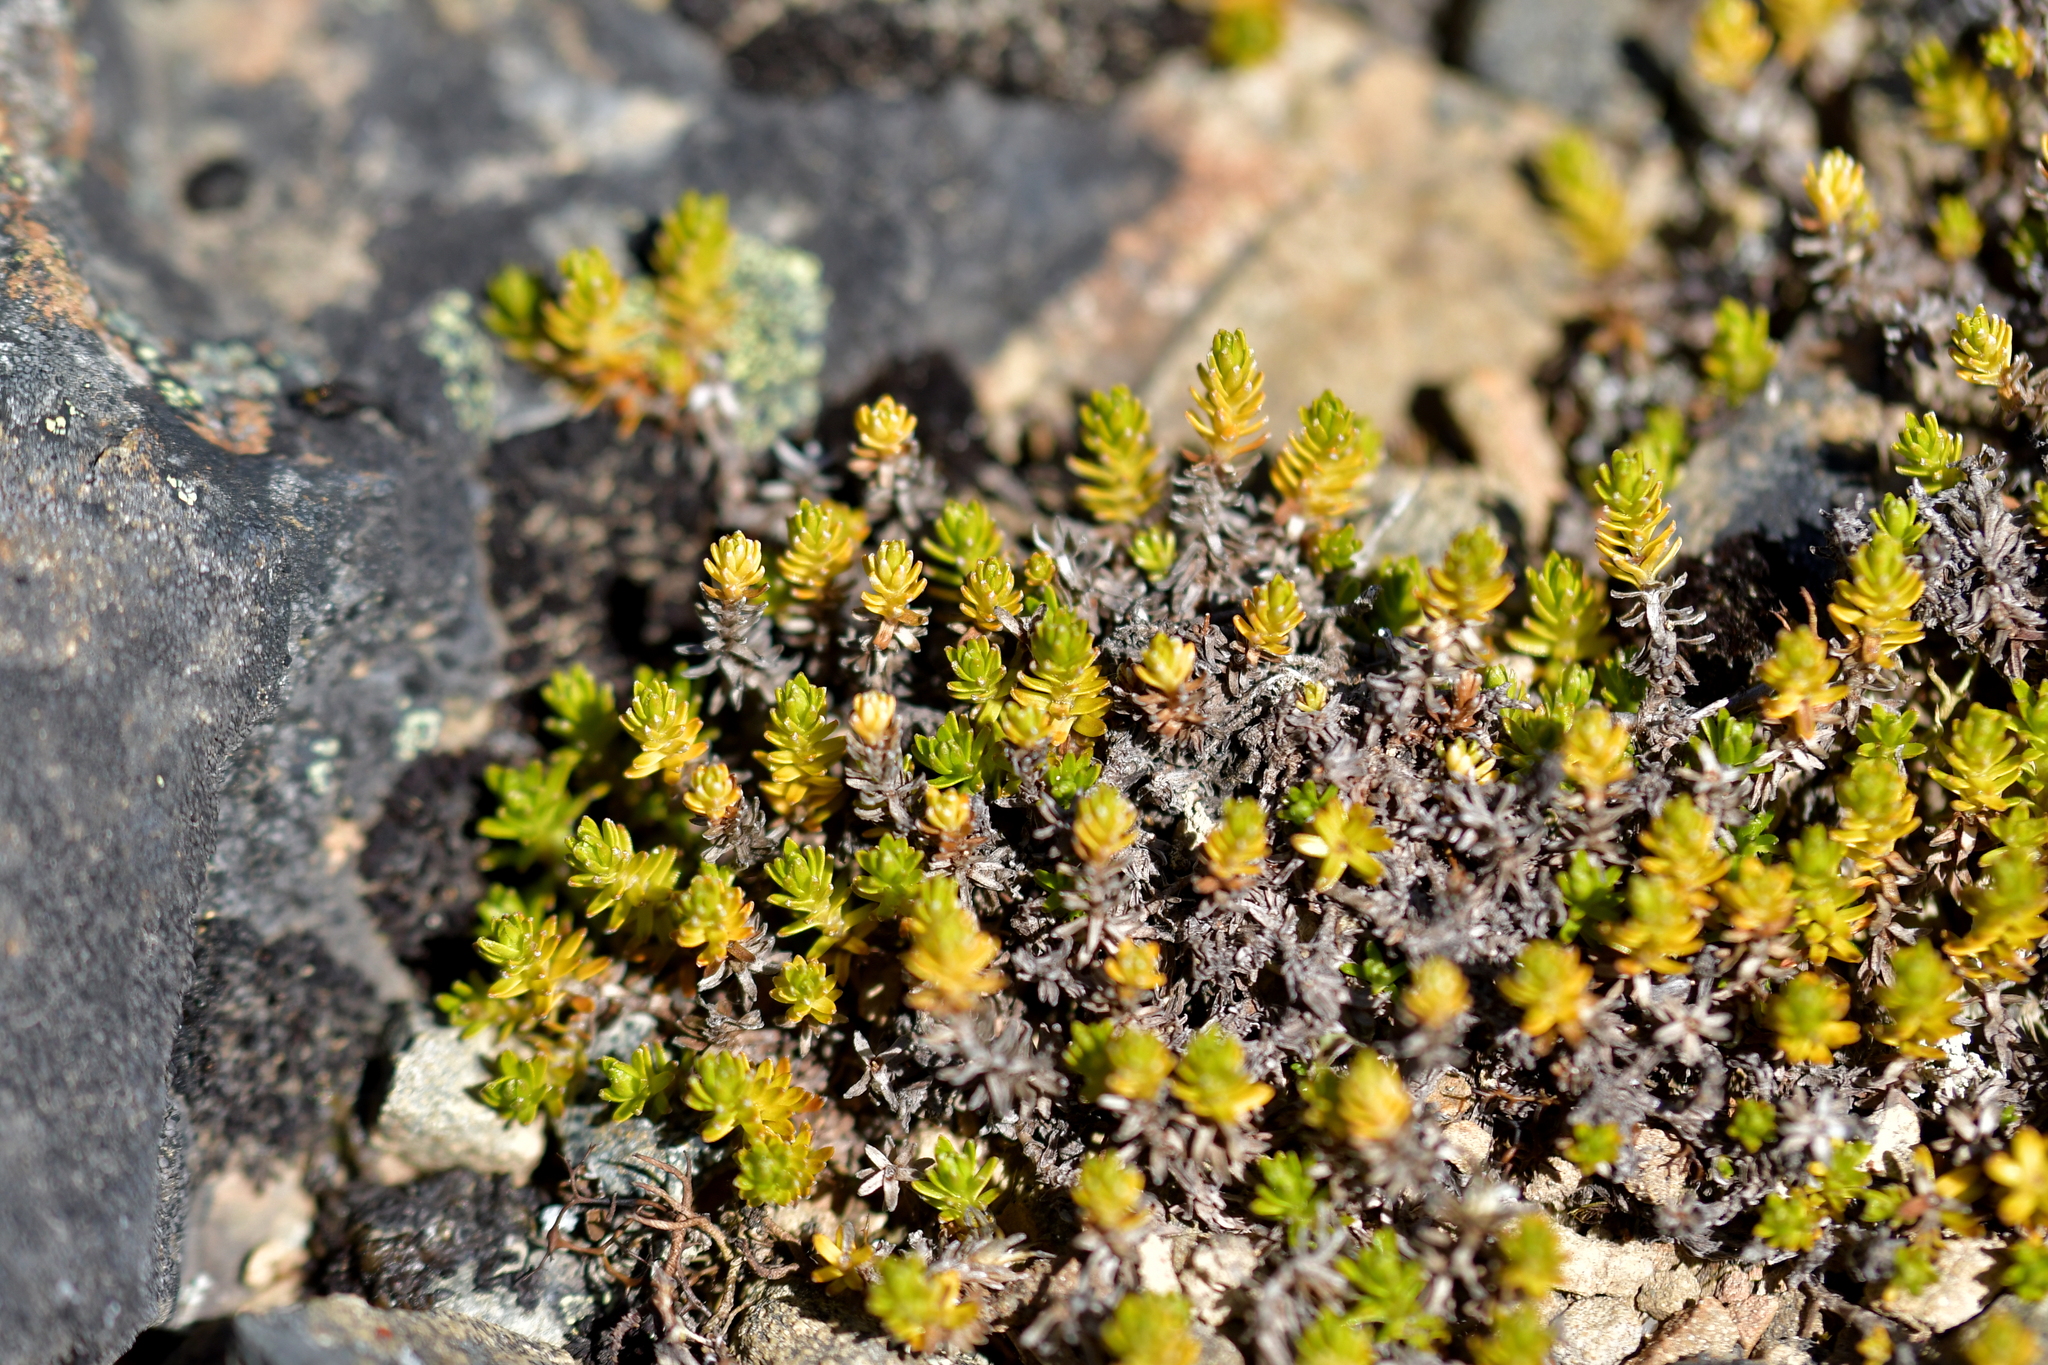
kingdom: Plantae
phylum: Tracheophyta
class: Magnoliopsida
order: Asterales
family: Asteraceae
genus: Raoulia
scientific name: Raoulia glabra
